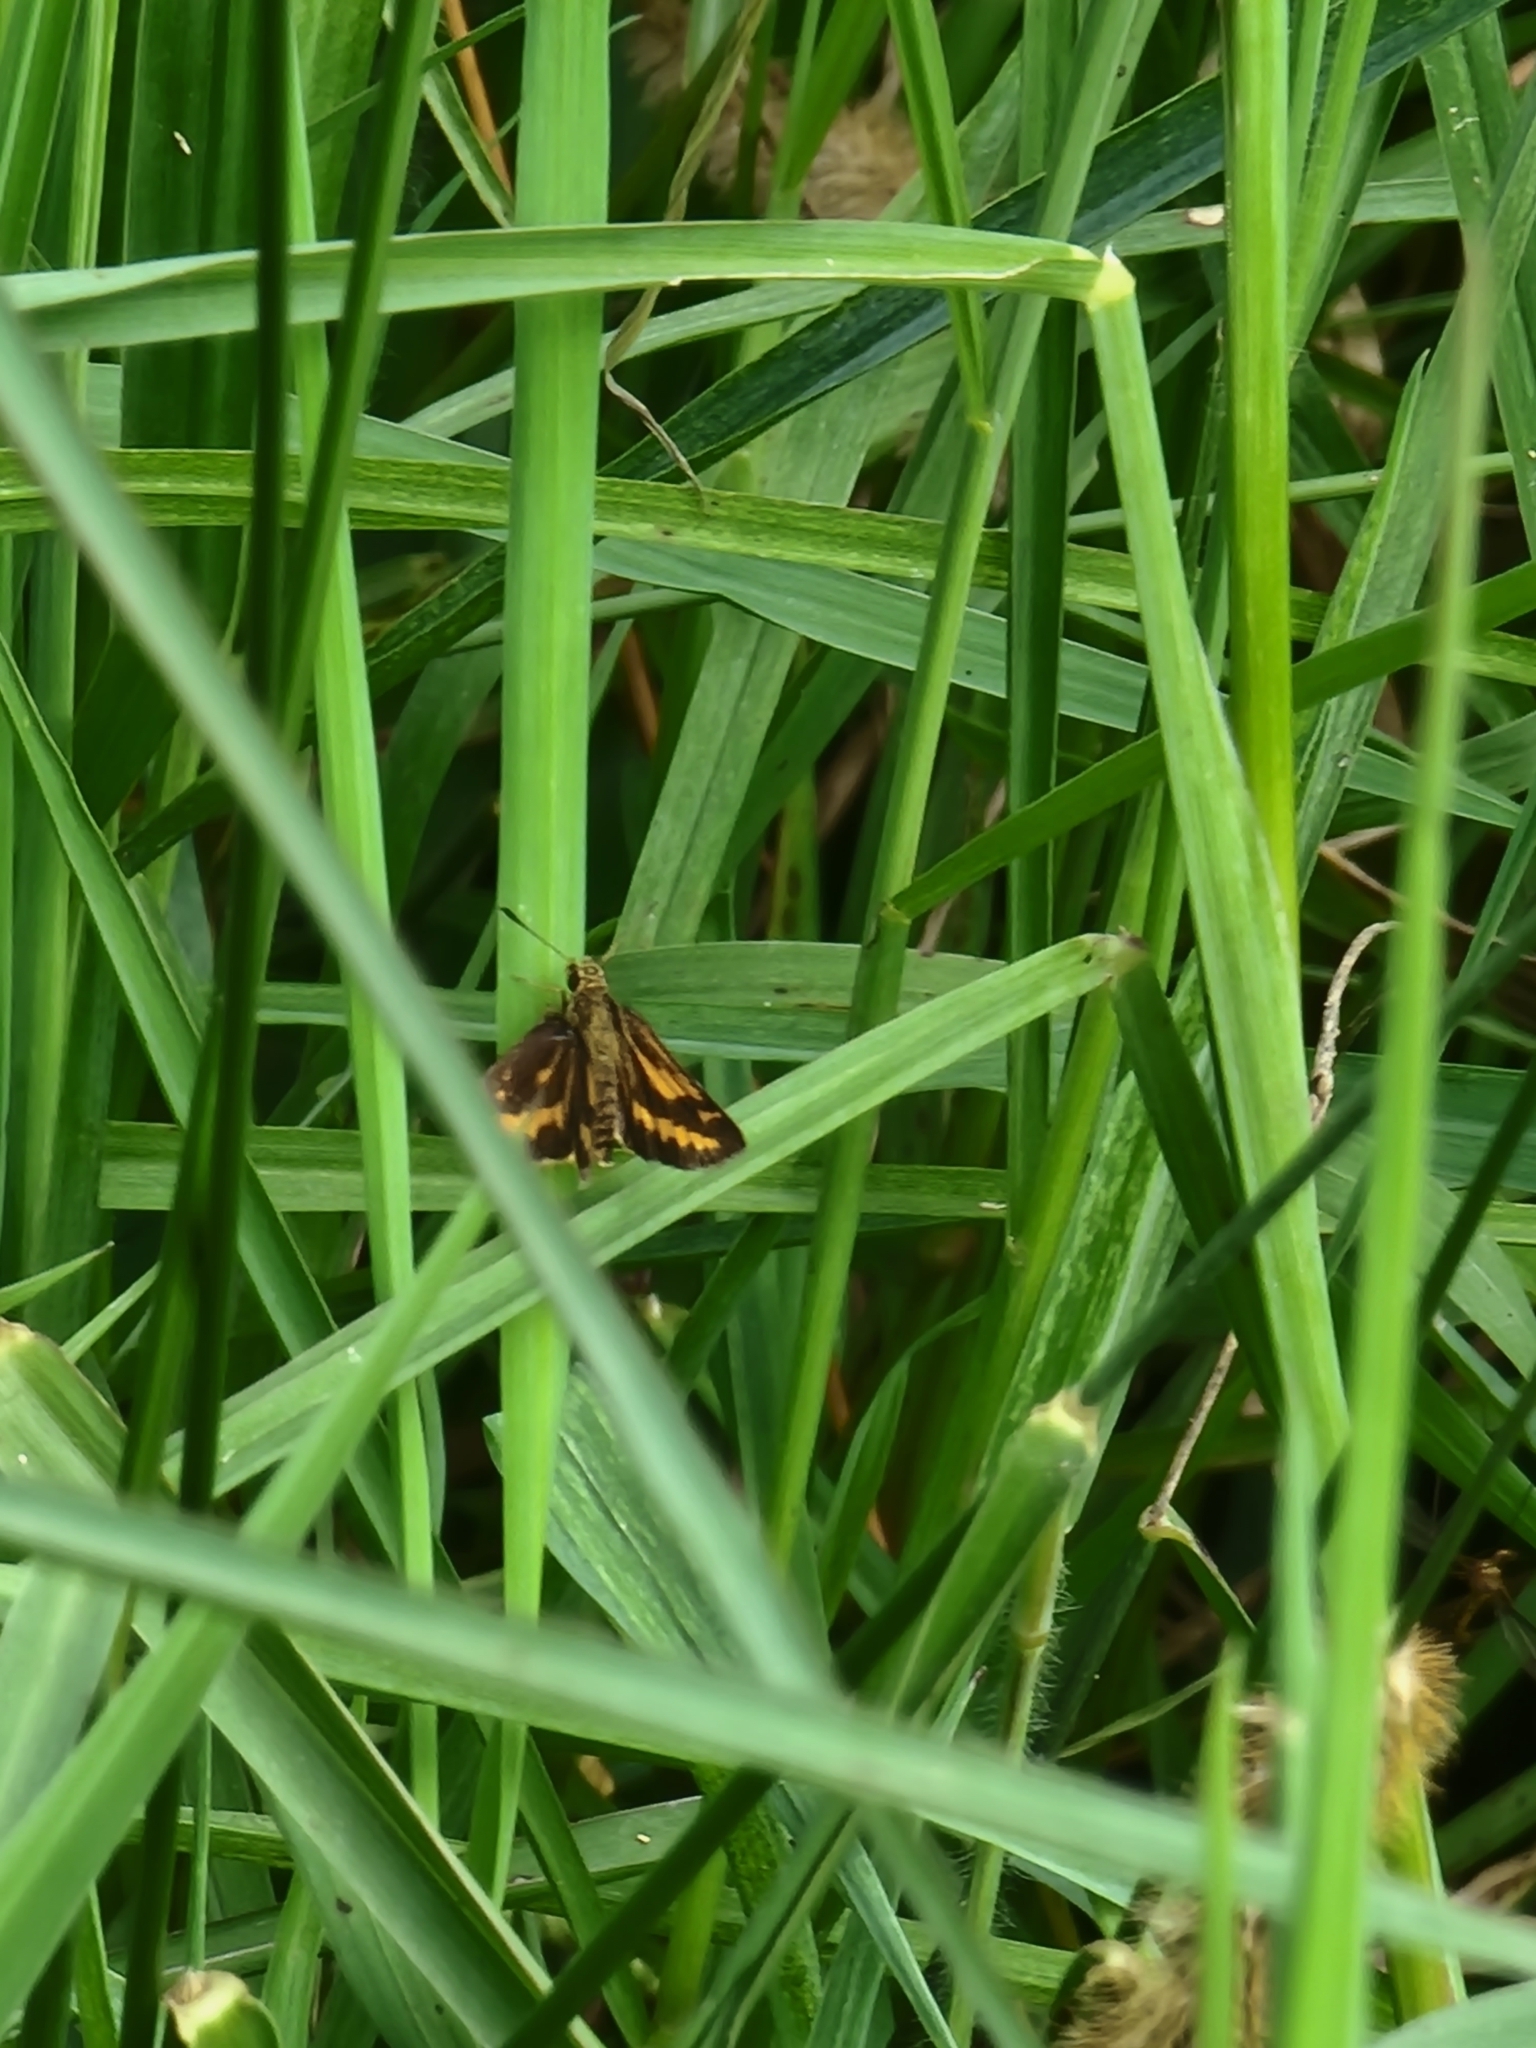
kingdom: Animalia
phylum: Arthropoda
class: Insecta
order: Lepidoptera
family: Hesperiidae
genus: Suniana
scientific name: Suniana sunias
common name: Wide-brand grass-dart
